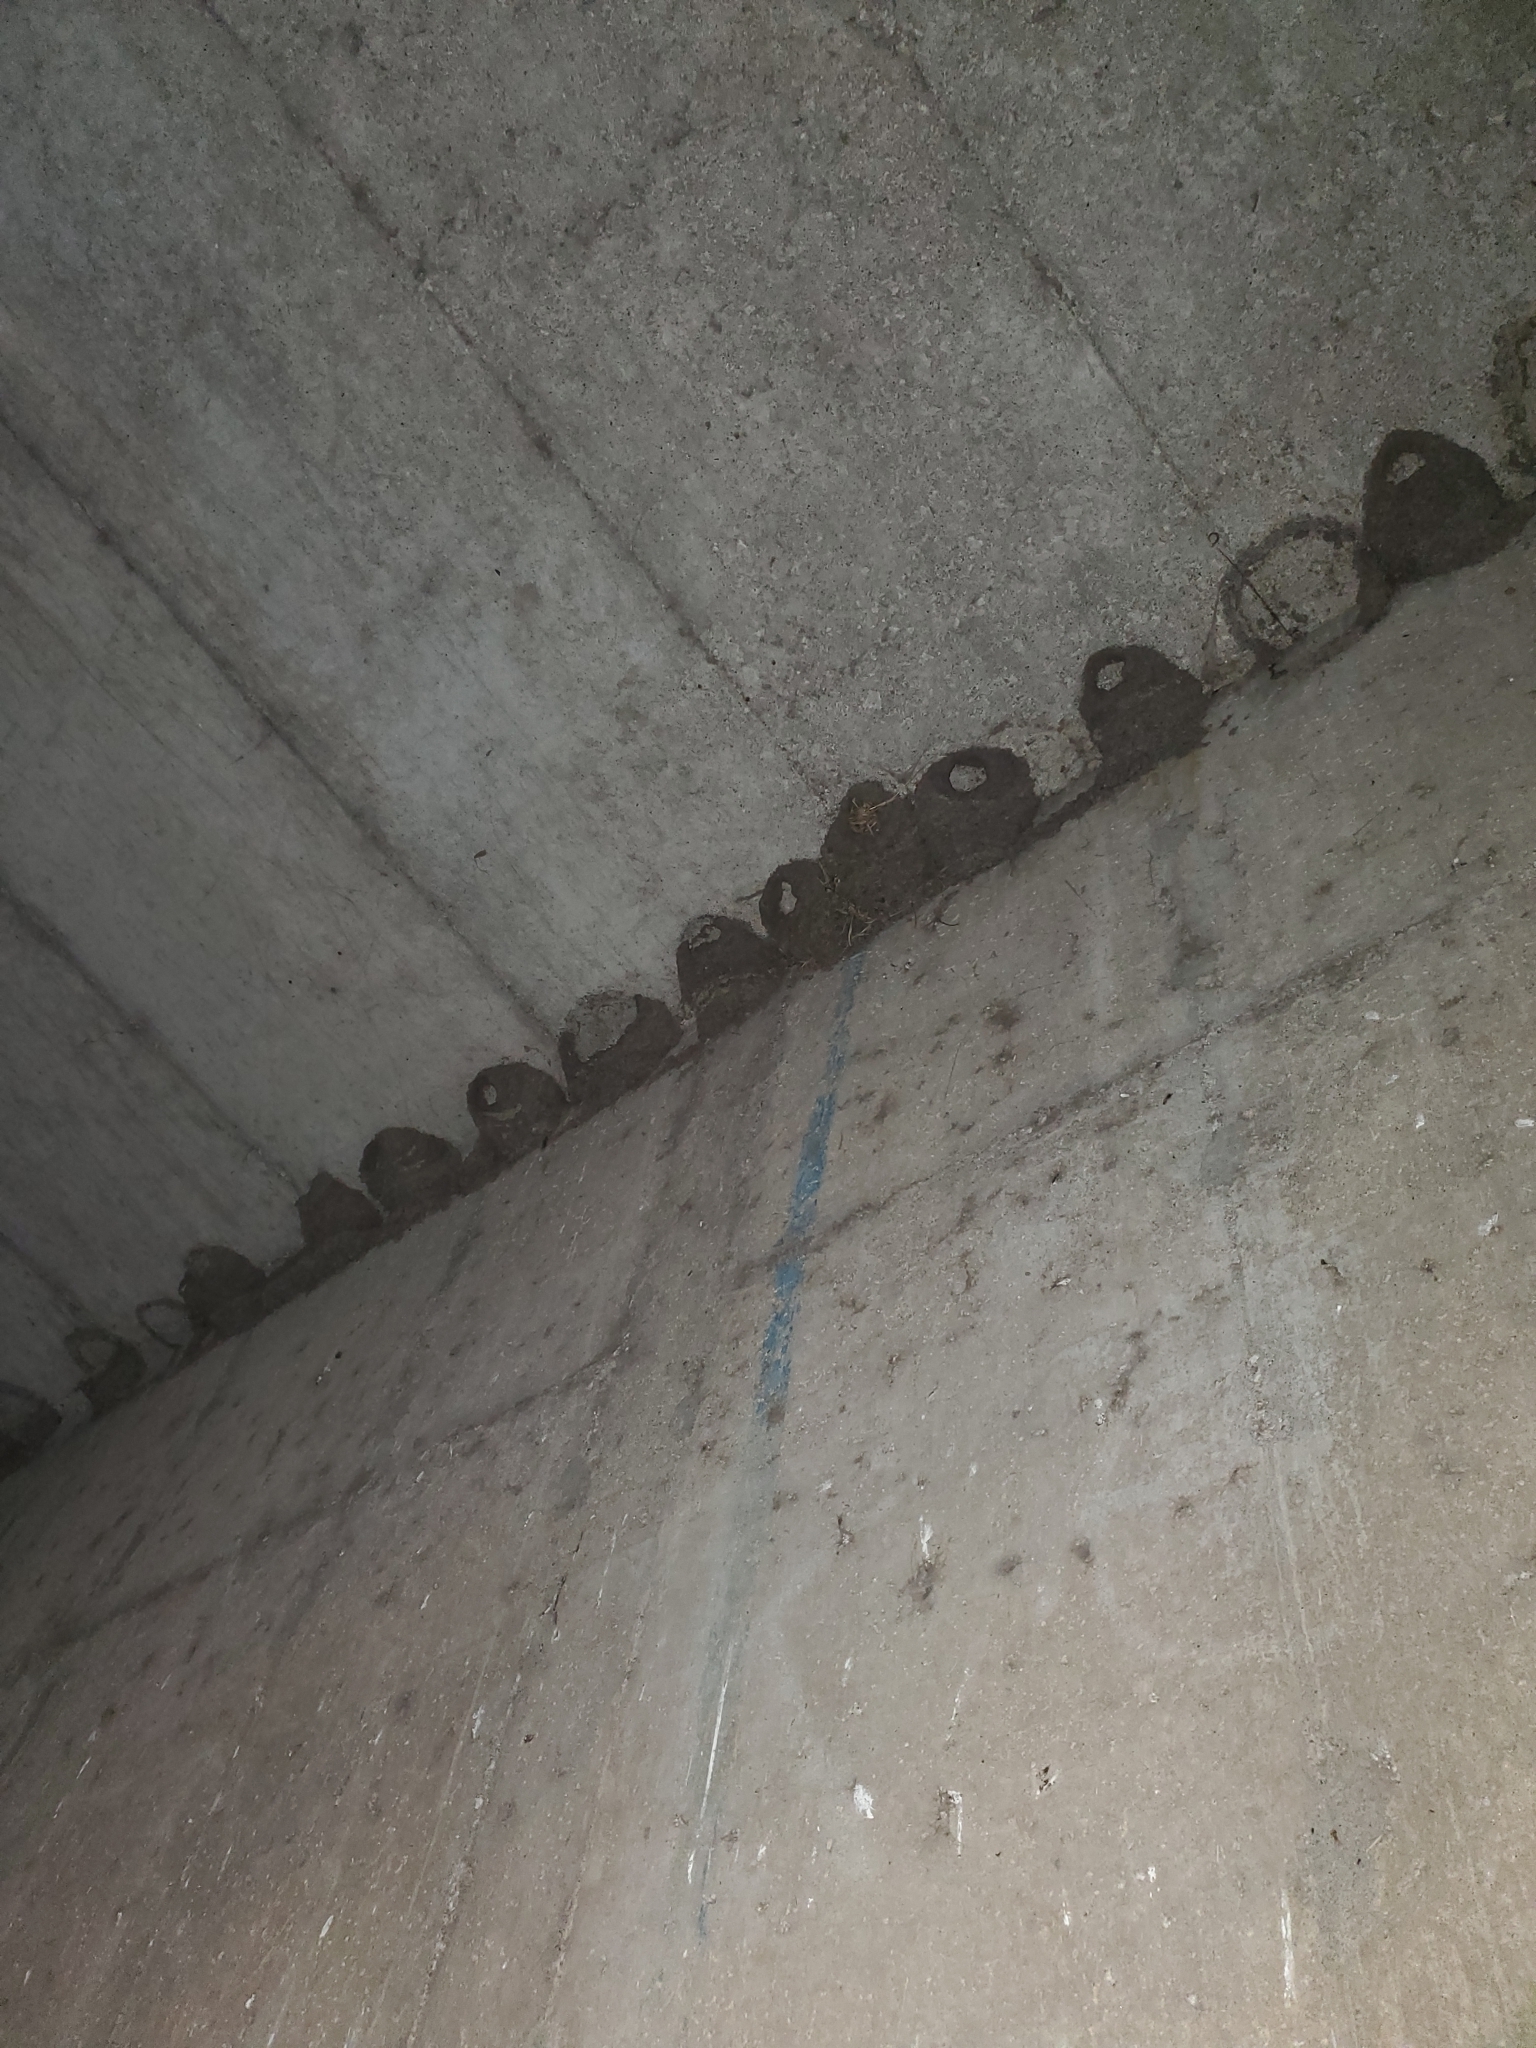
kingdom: Animalia
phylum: Chordata
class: Aves
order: Passeriformes
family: Hirundinidae
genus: Petrochelidon
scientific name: Petrochelidon pyrrhonota
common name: American cliff swallow
